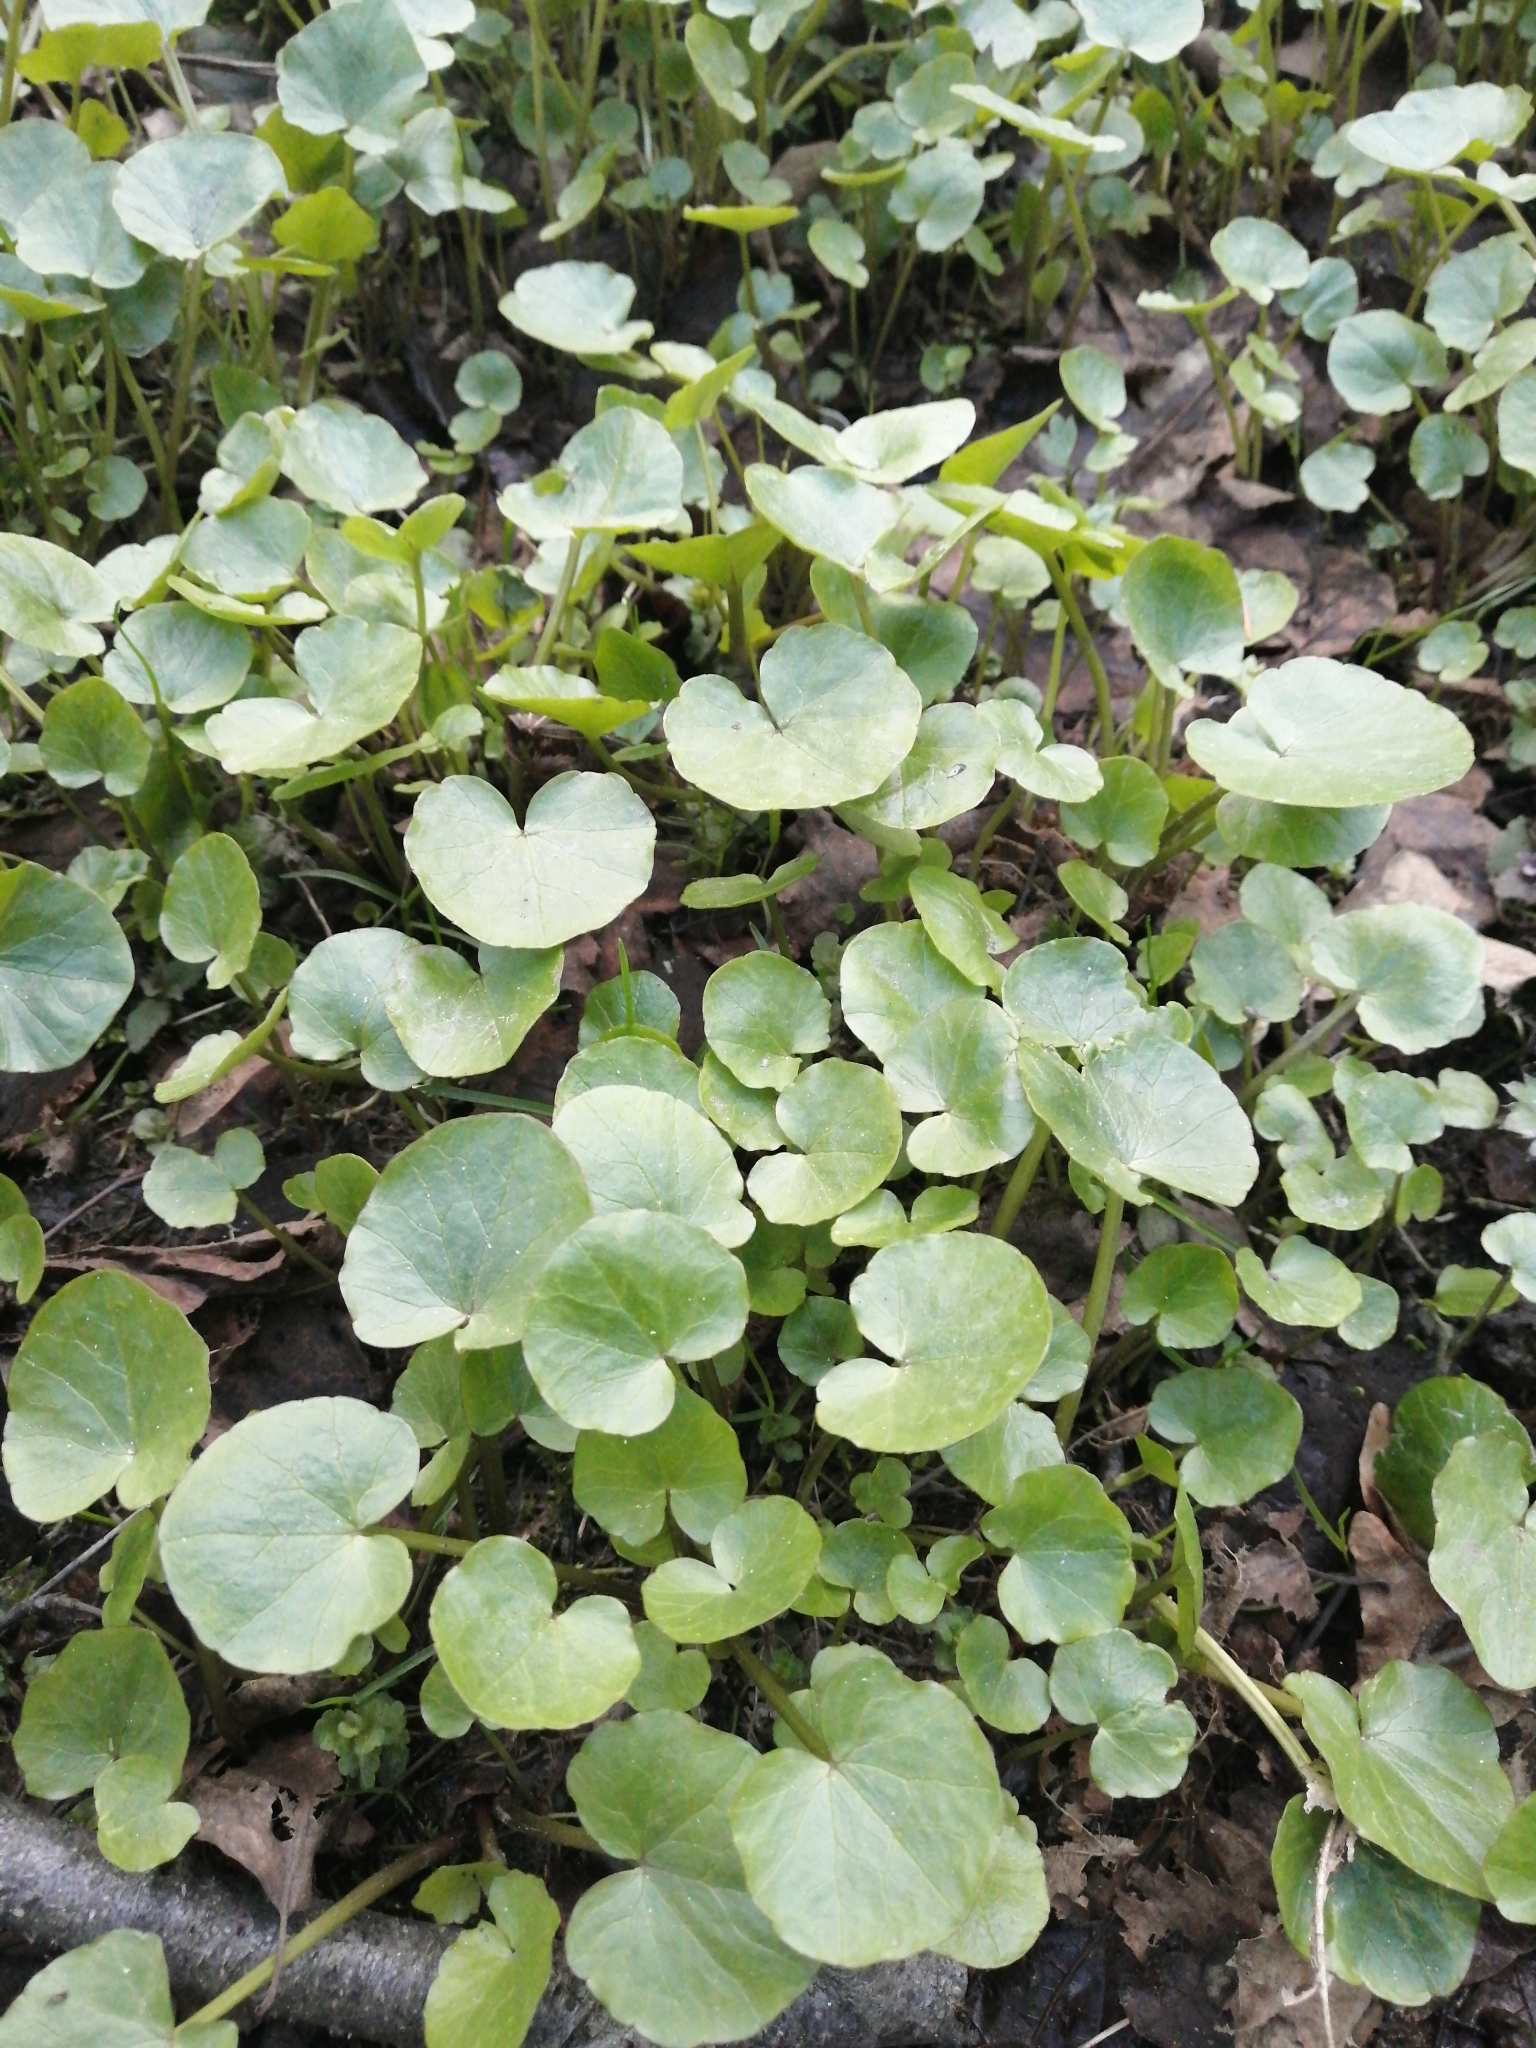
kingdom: Plantae
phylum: Tracheophyta
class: Magnoliopsida
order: Ranunculales
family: Ranunculaceae
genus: Ficaria
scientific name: Ficaria verna
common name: Lesser celandine
